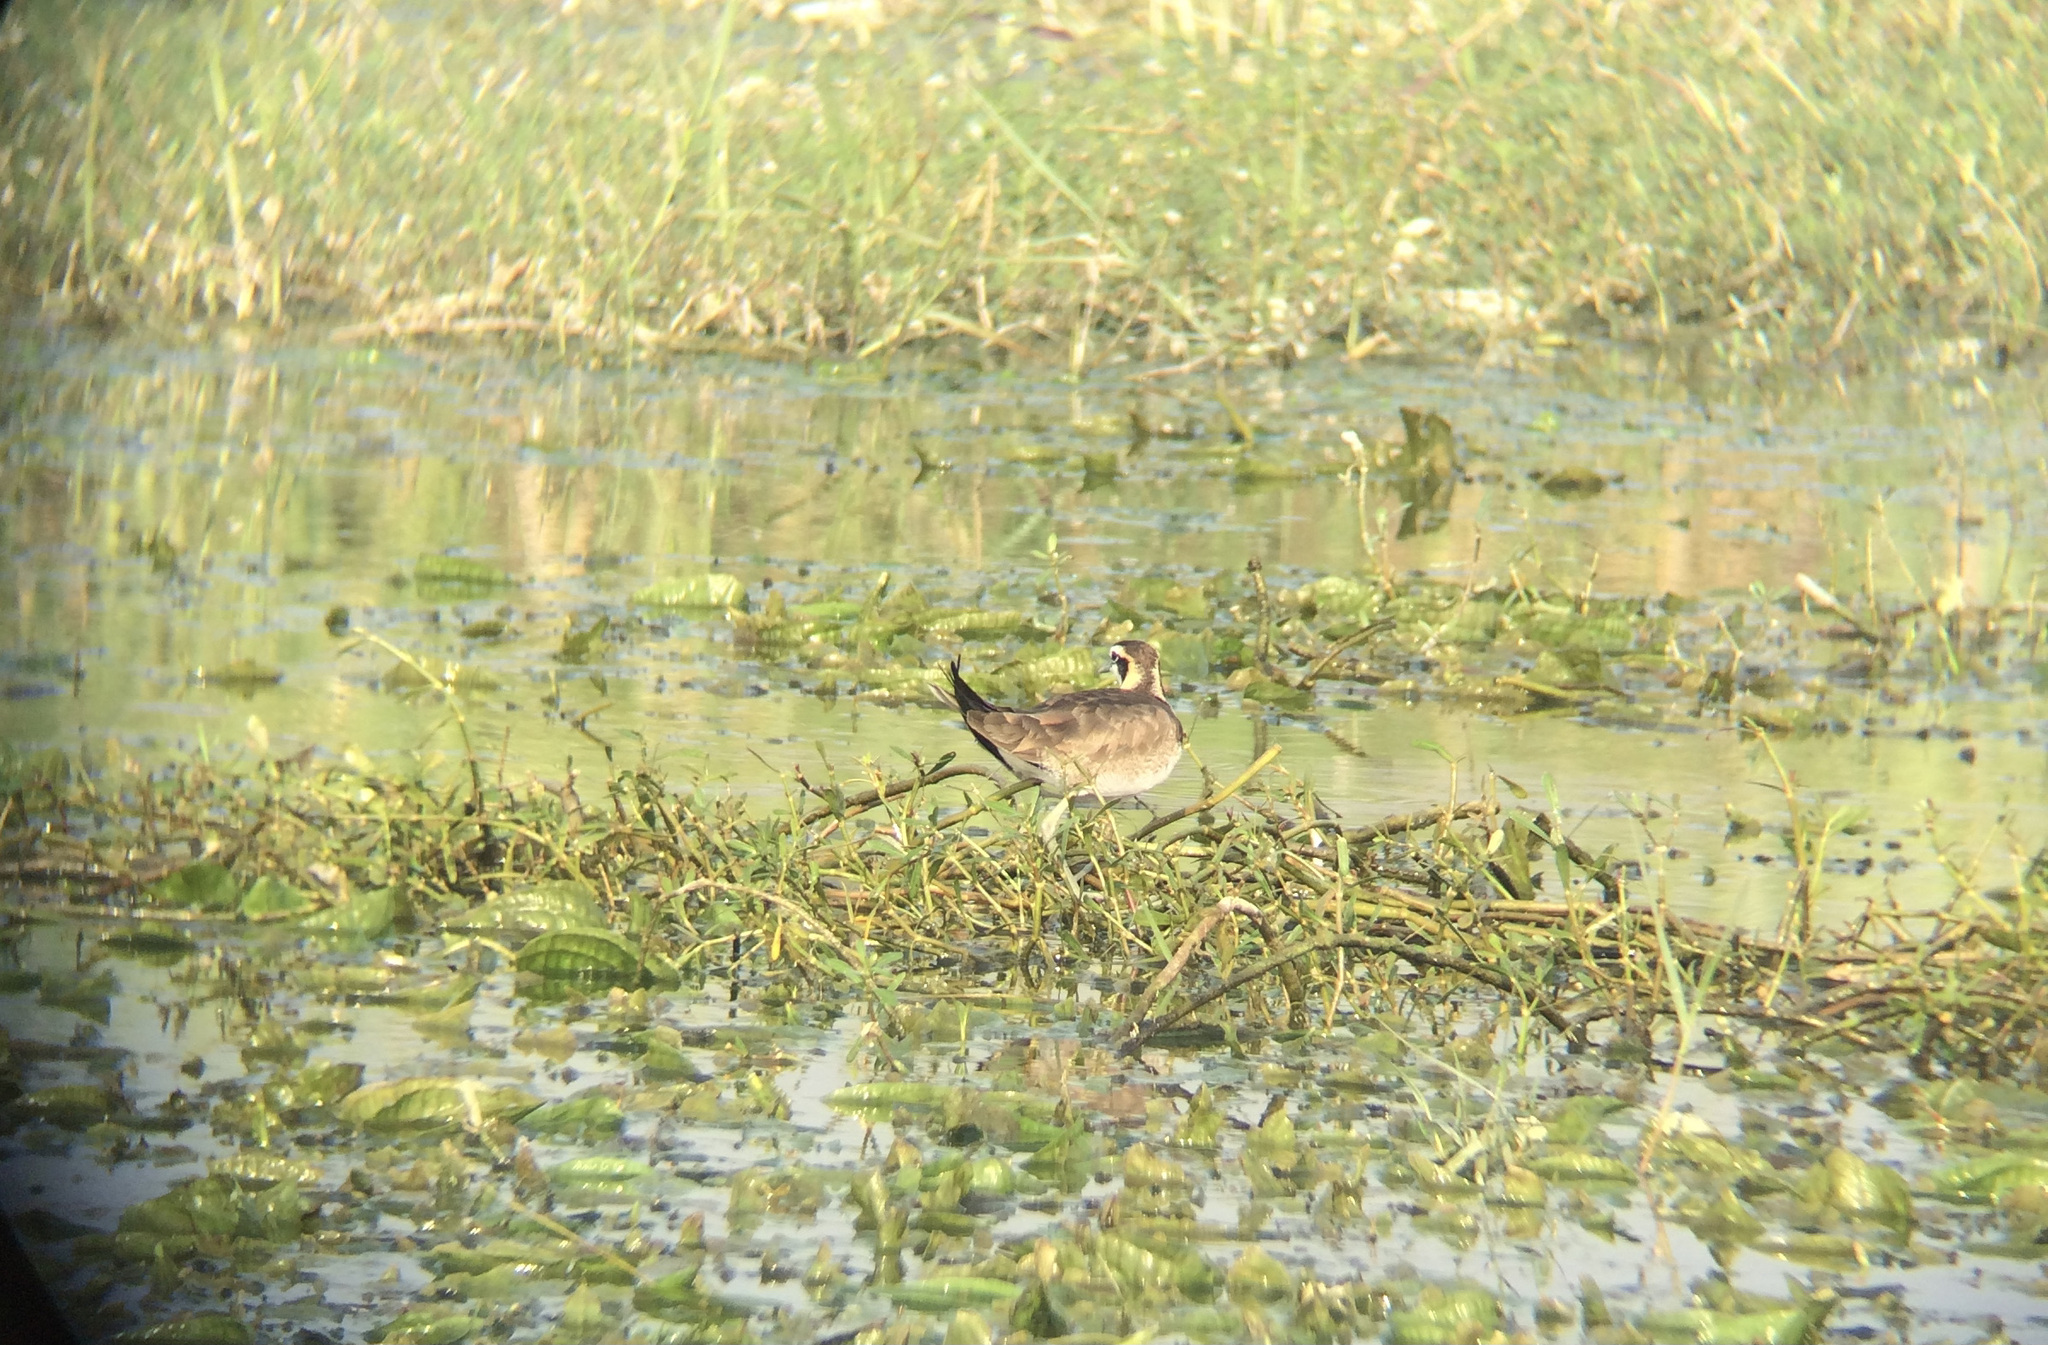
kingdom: Animalia
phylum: Chordata
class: Aves
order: Charadriiformes
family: Jacanidae
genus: Hydrophasianus
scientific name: Hydrophasianus chirurgus
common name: Pheasant-tailed jacana
